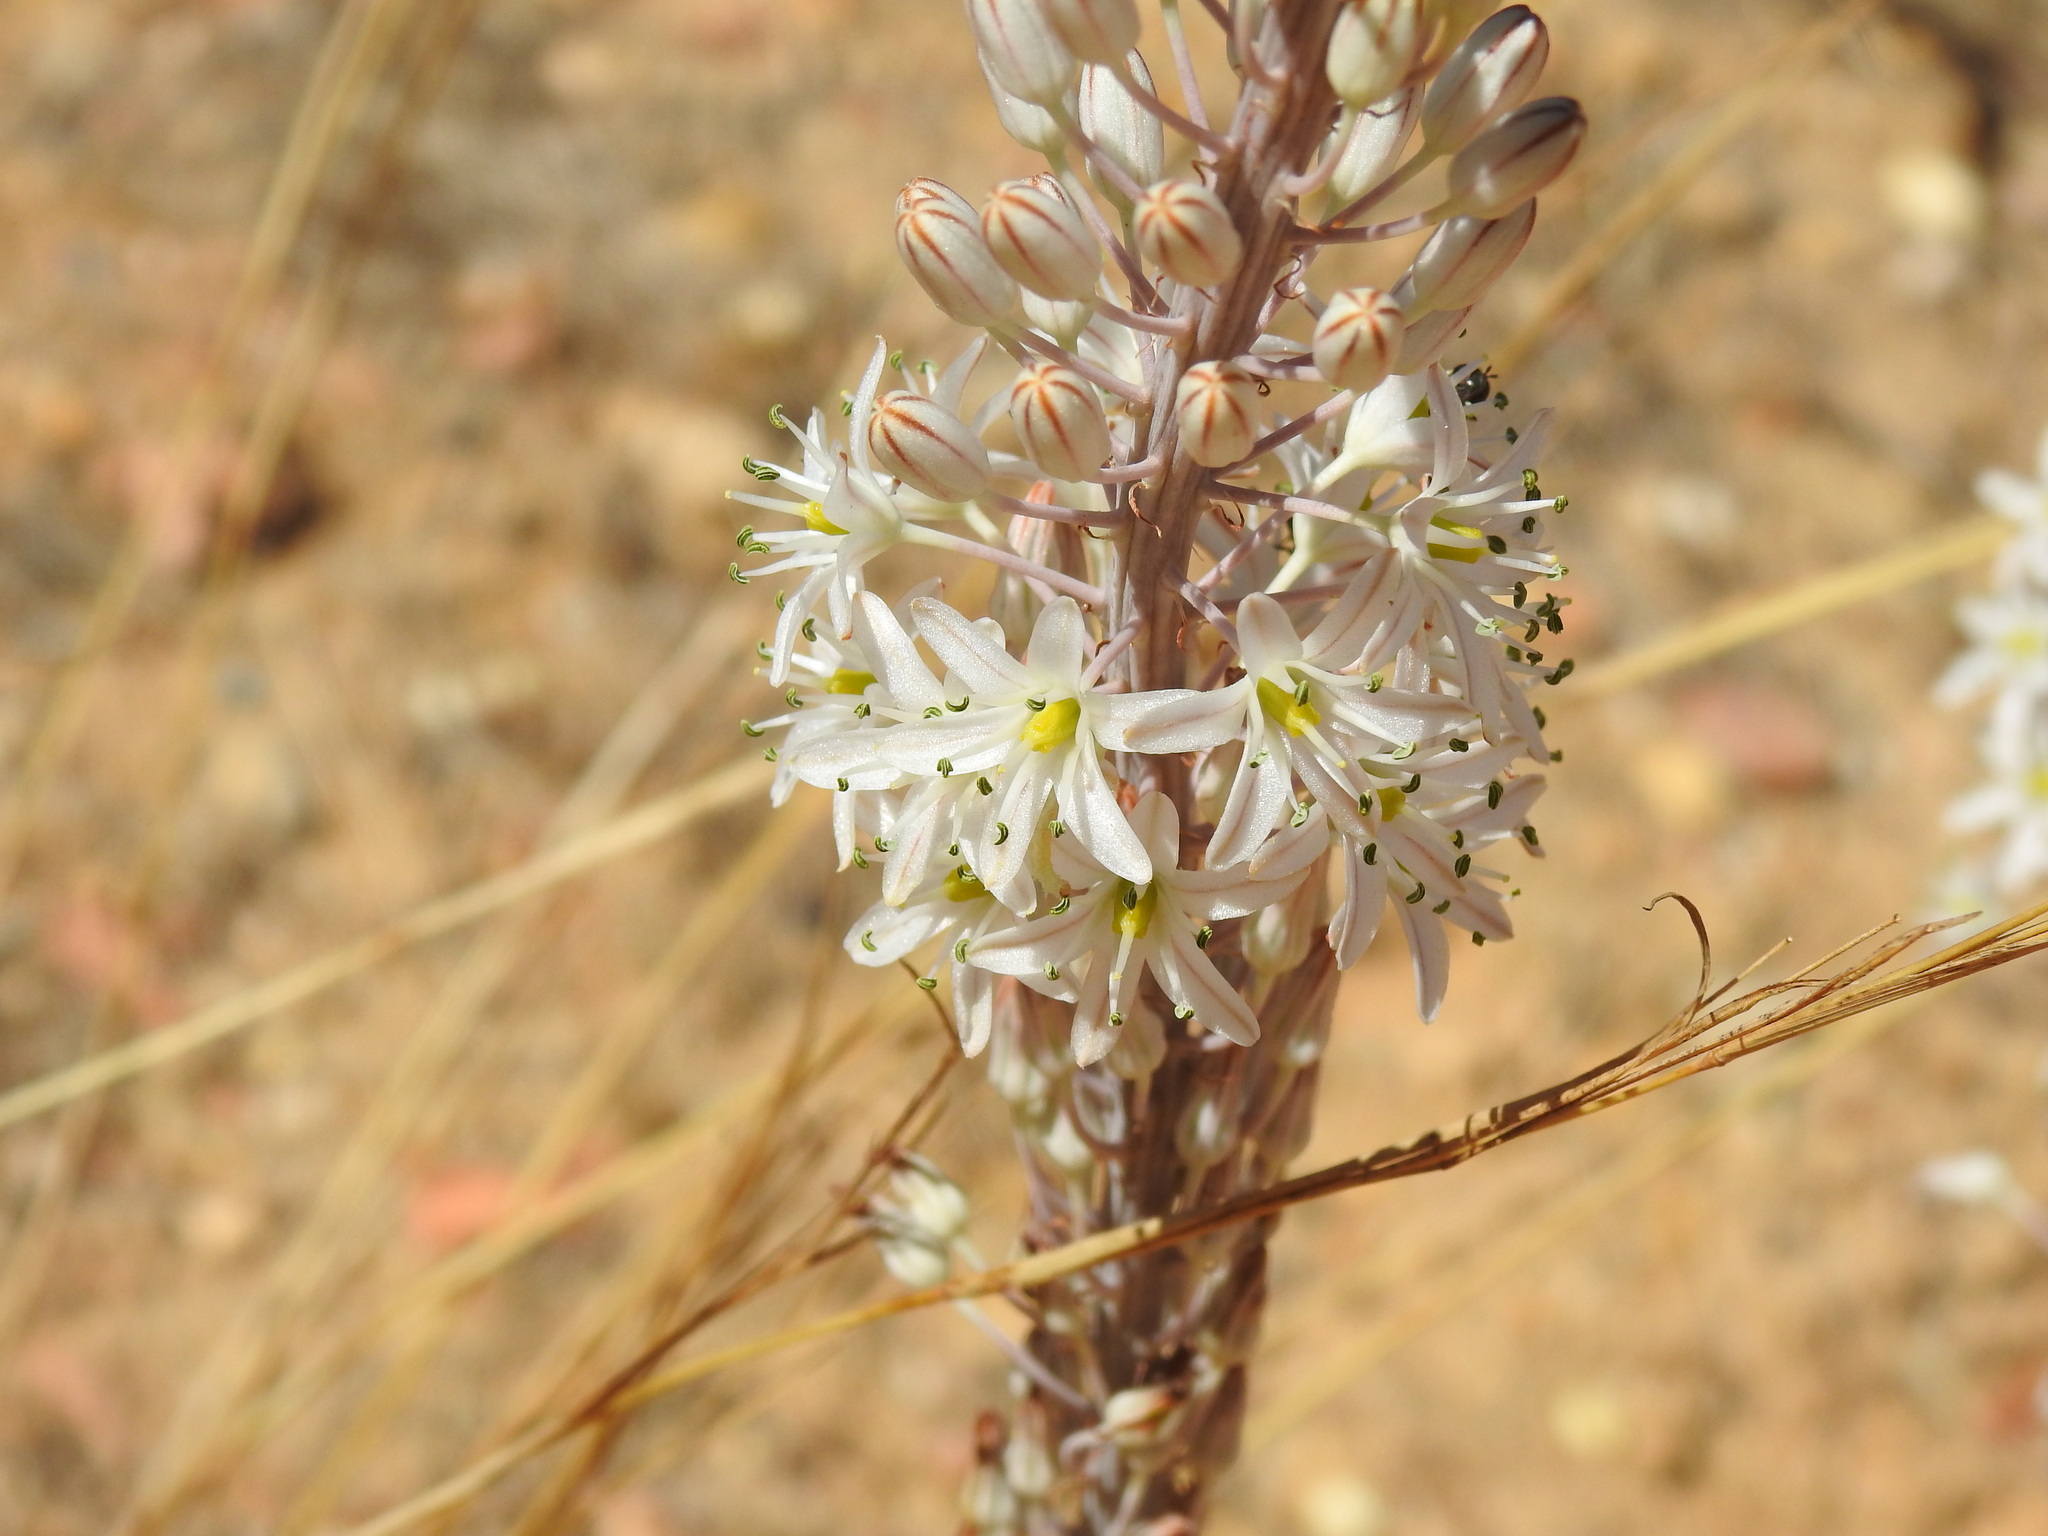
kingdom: Plantae
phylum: Tracheophyta
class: Liliopsida
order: Asparagales
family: Asparagaceae
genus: Drimia
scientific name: Drimia maritima
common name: Maritime squill
